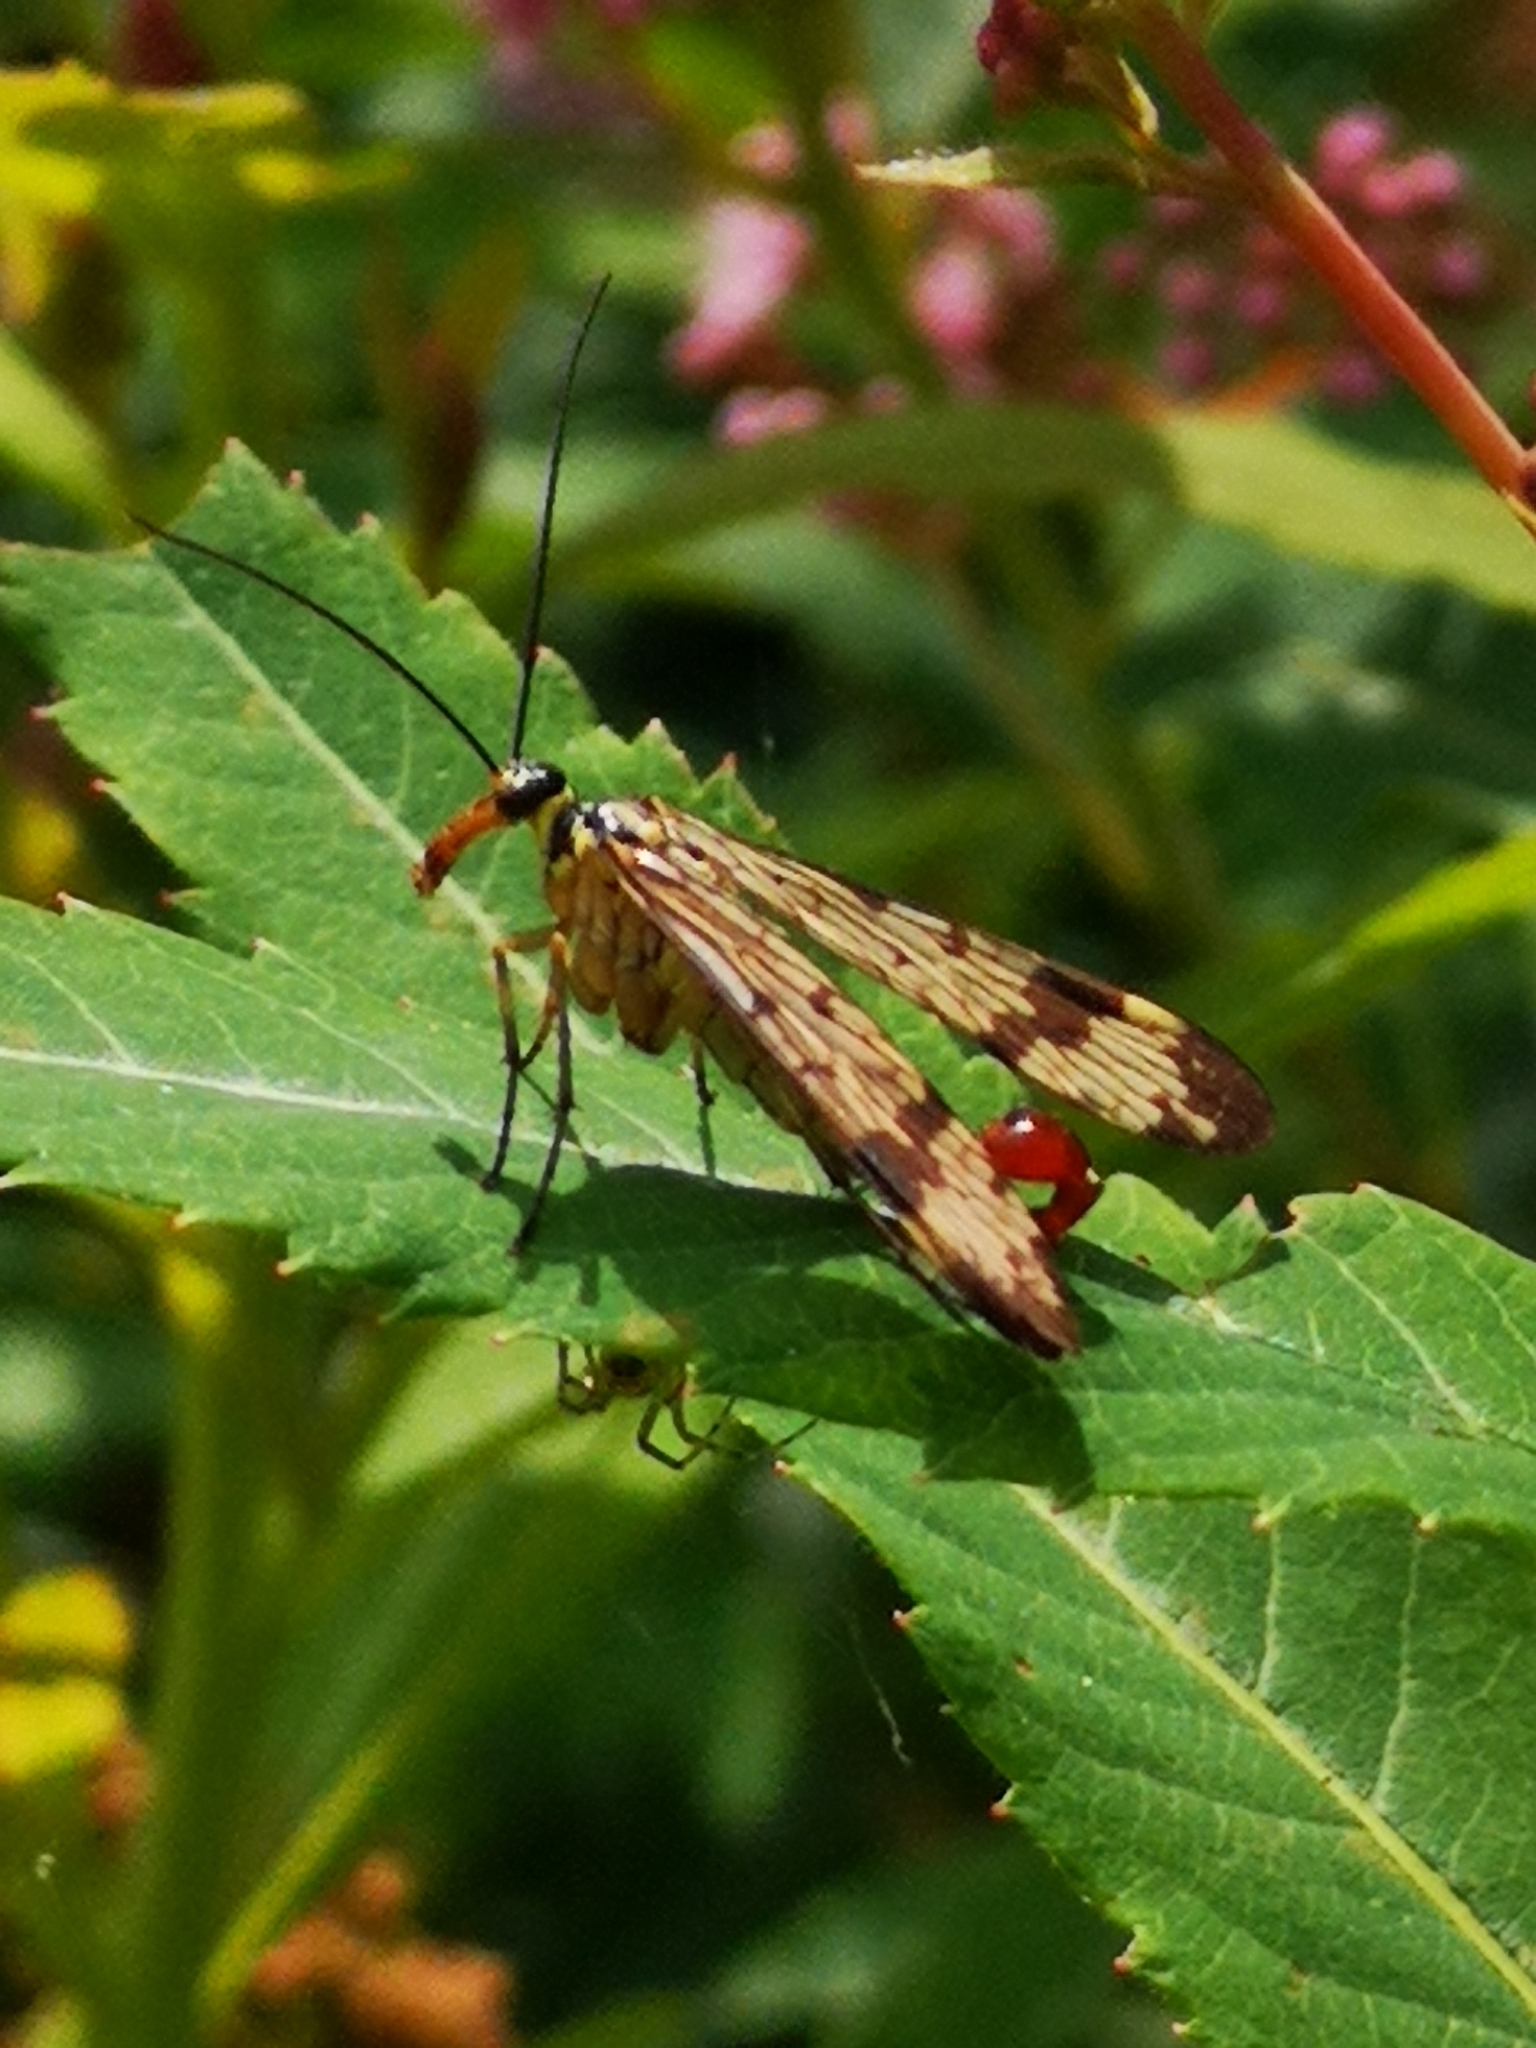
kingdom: Animalia
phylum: Arthropoda
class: Insecta
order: Mecoptera
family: Panorpidae
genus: Panorpa
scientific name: Panorpa communis
